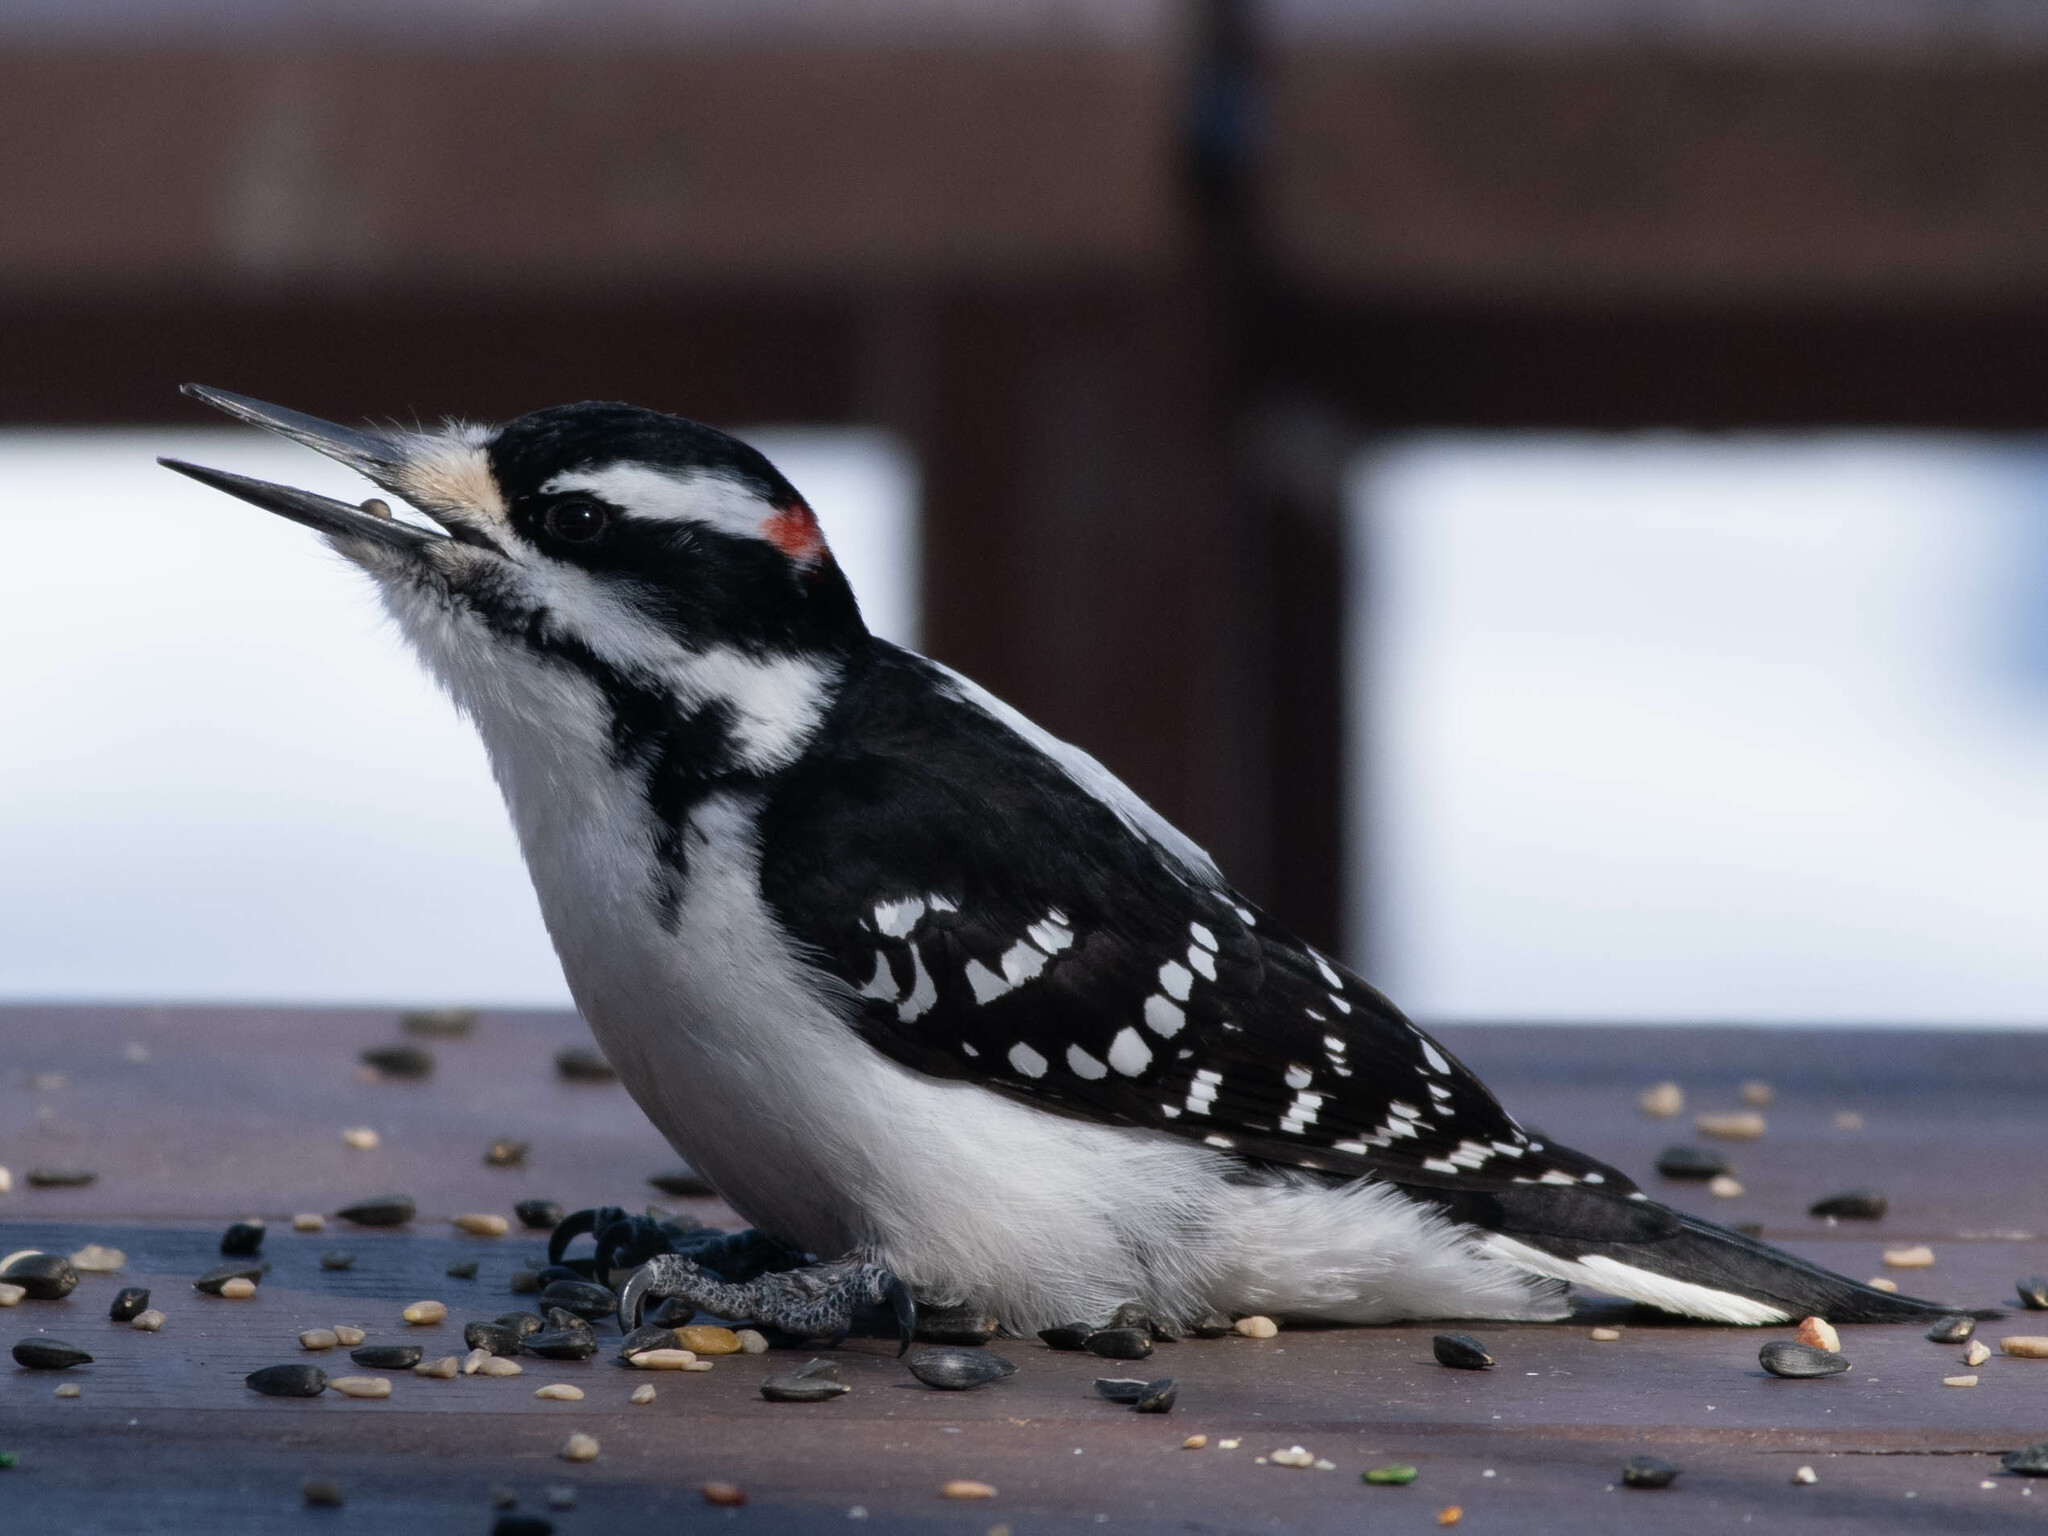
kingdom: Animalia
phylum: Chordata
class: Aves
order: Piciformes
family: Picidae
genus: Leuconotopicus
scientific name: Leuconotopicus villosus
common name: Hairy woodpecker
